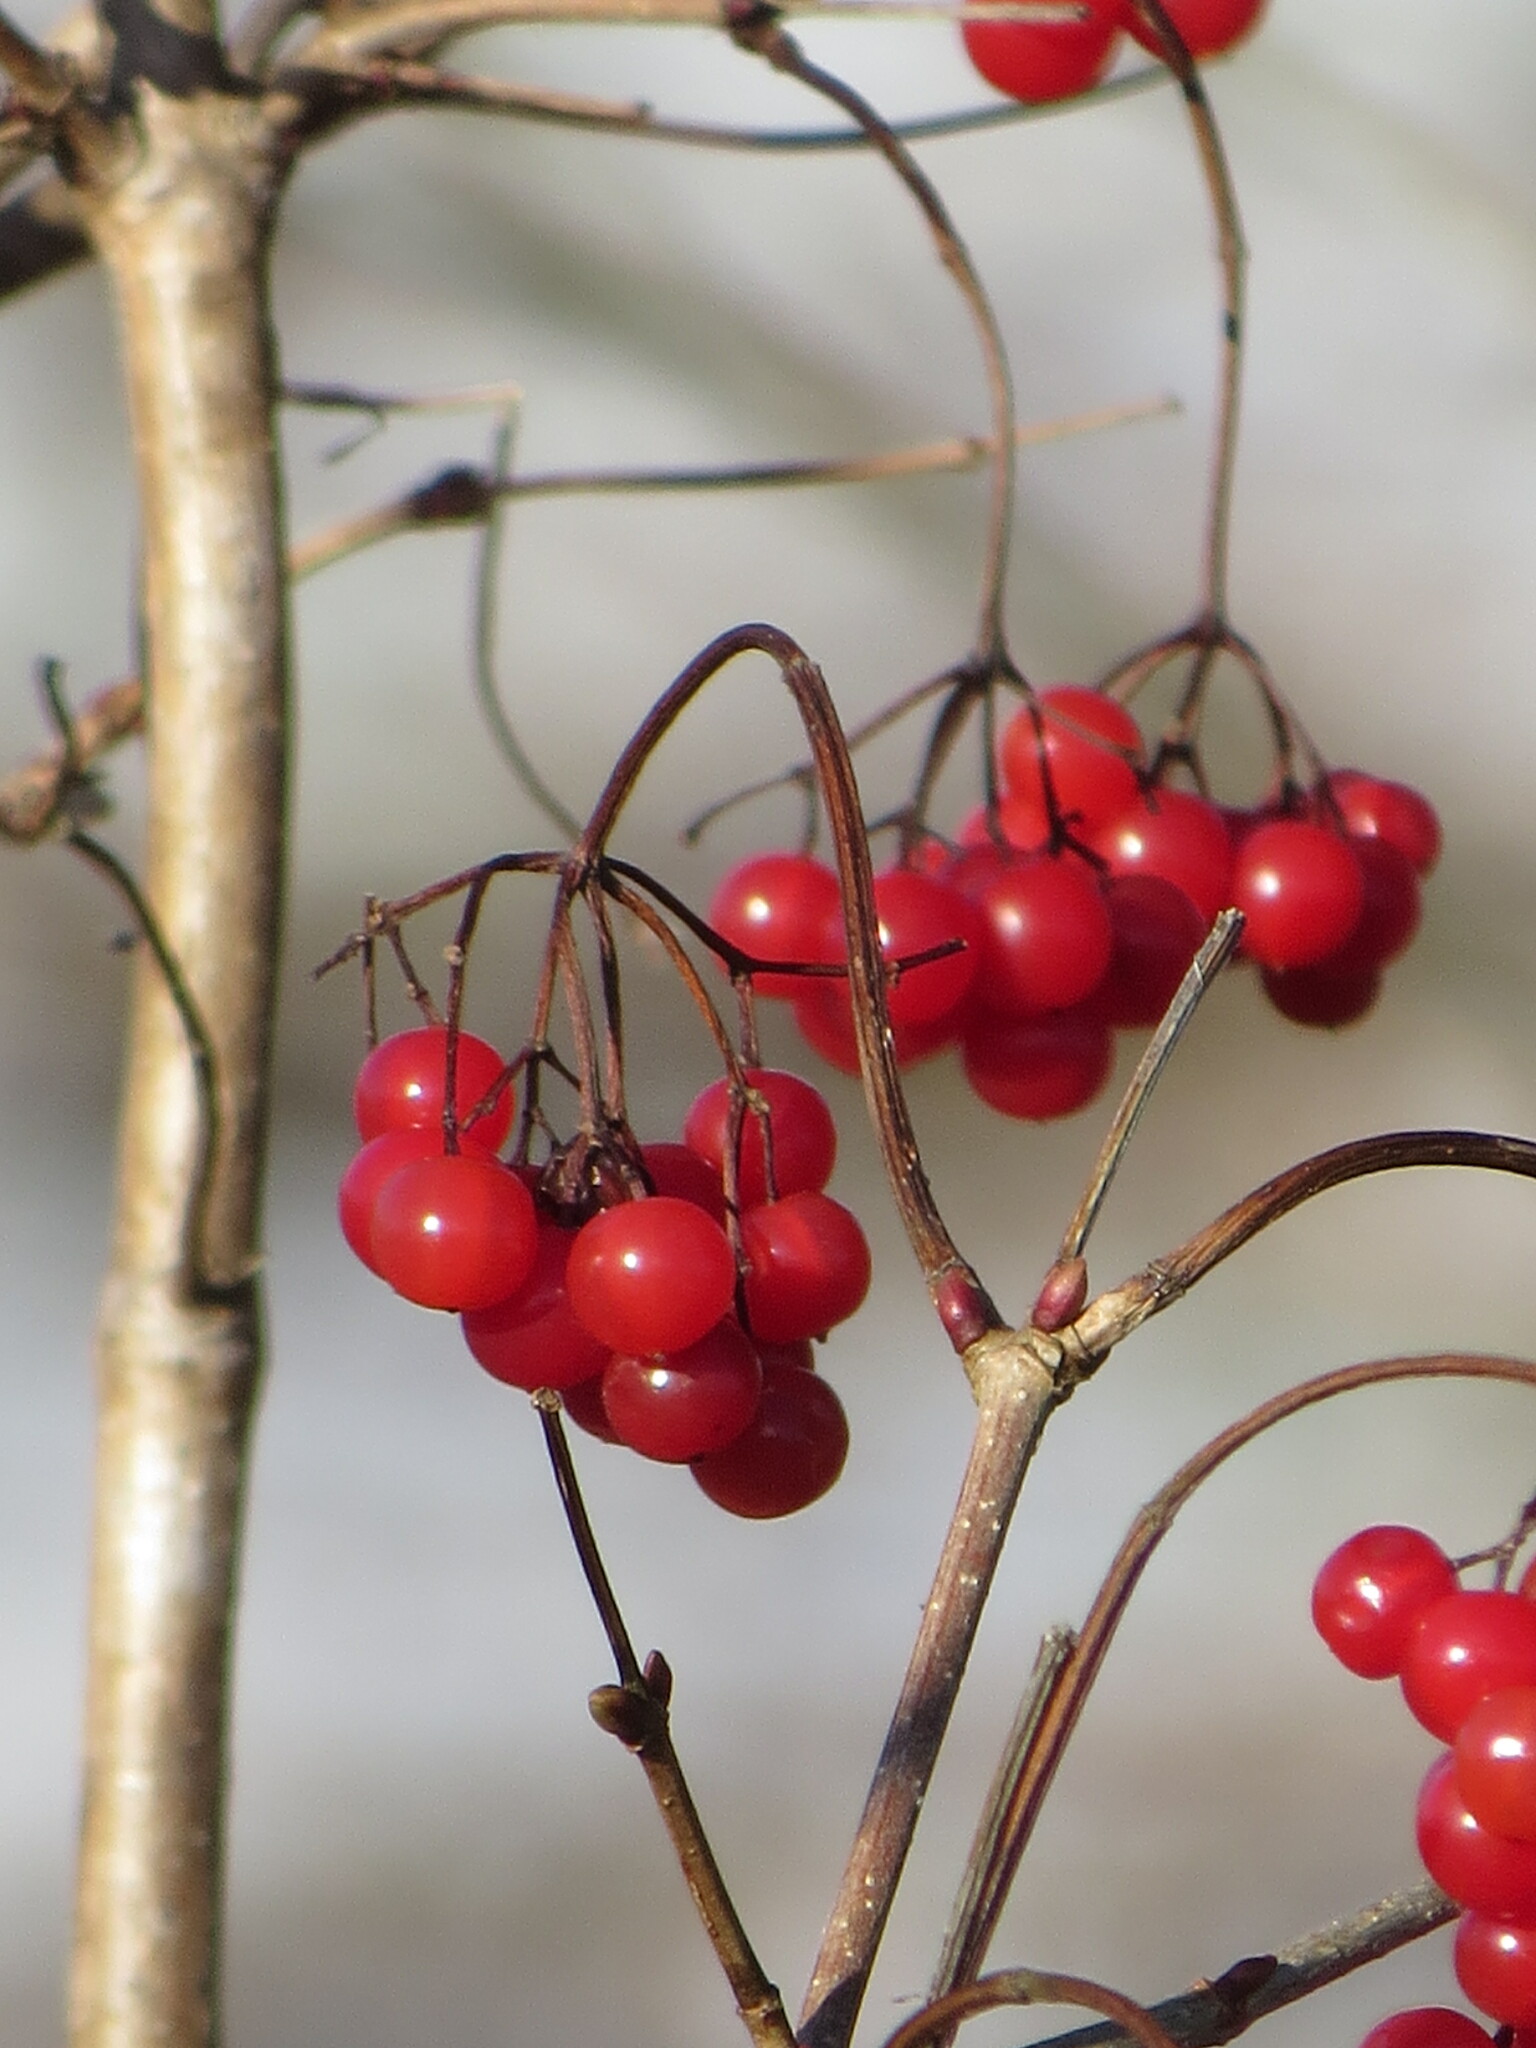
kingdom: Plantae
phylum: Tracheophyta
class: Magnoliopsida
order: Dipsacales
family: Viburnaceae
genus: Viburnum
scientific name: Viburnum opulus
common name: Guelder-rose
